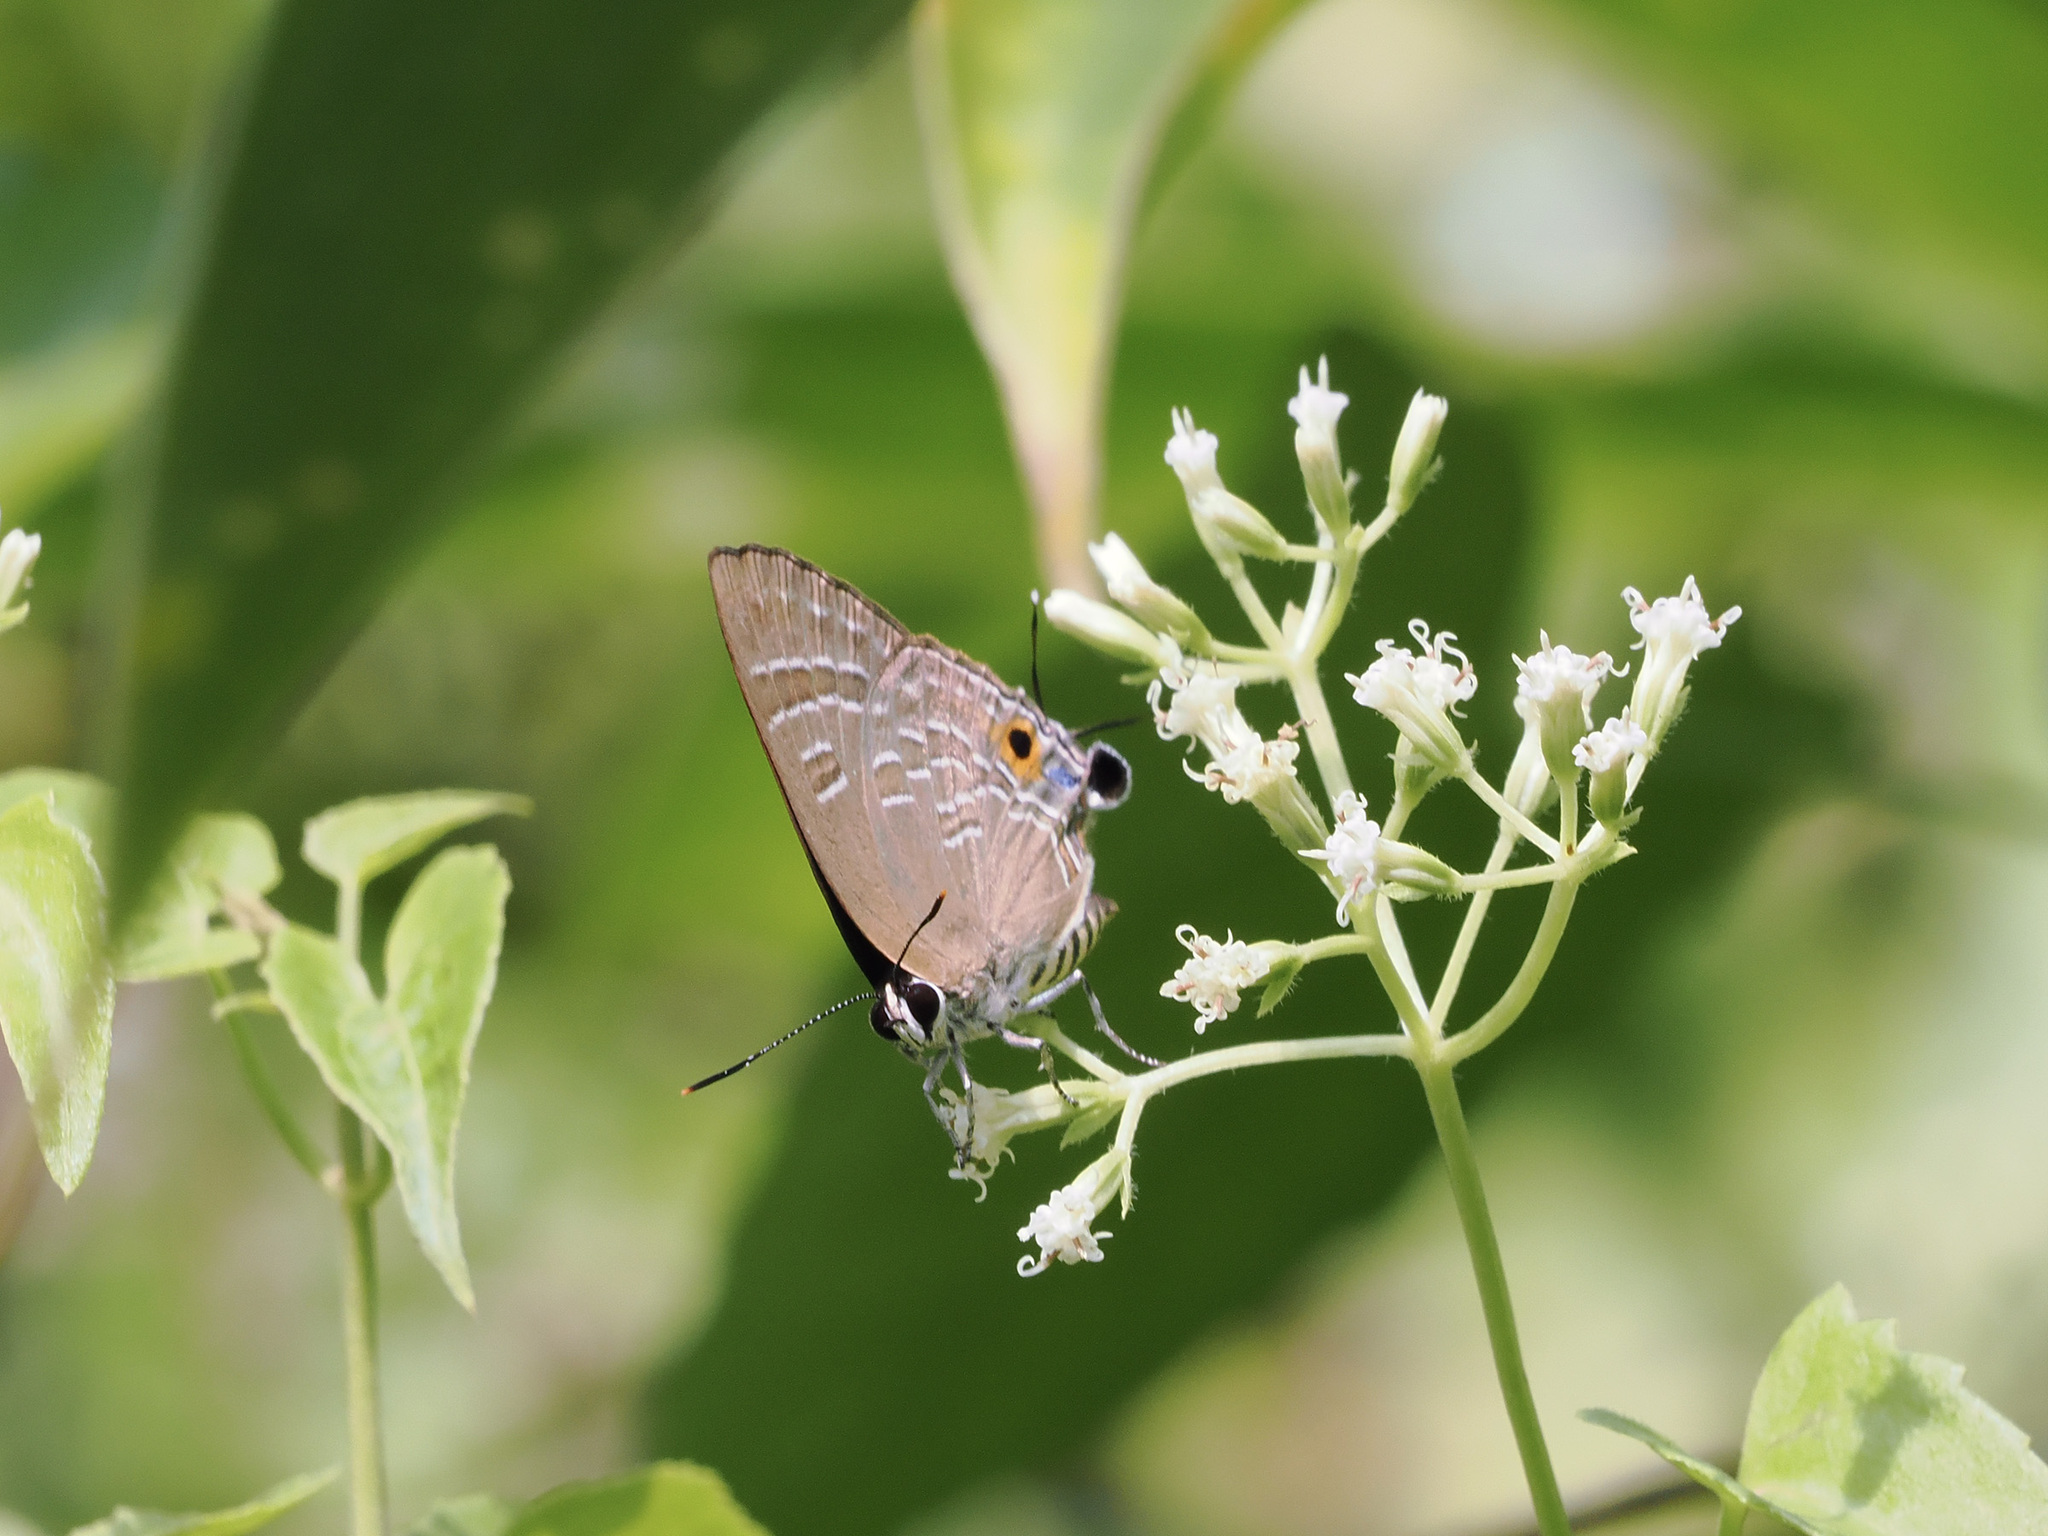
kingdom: Animalia
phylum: Arthropoda
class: Insecta
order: Lepidoptera
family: Lycaenidae
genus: Deudorix
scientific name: Deudorix epijarbas
